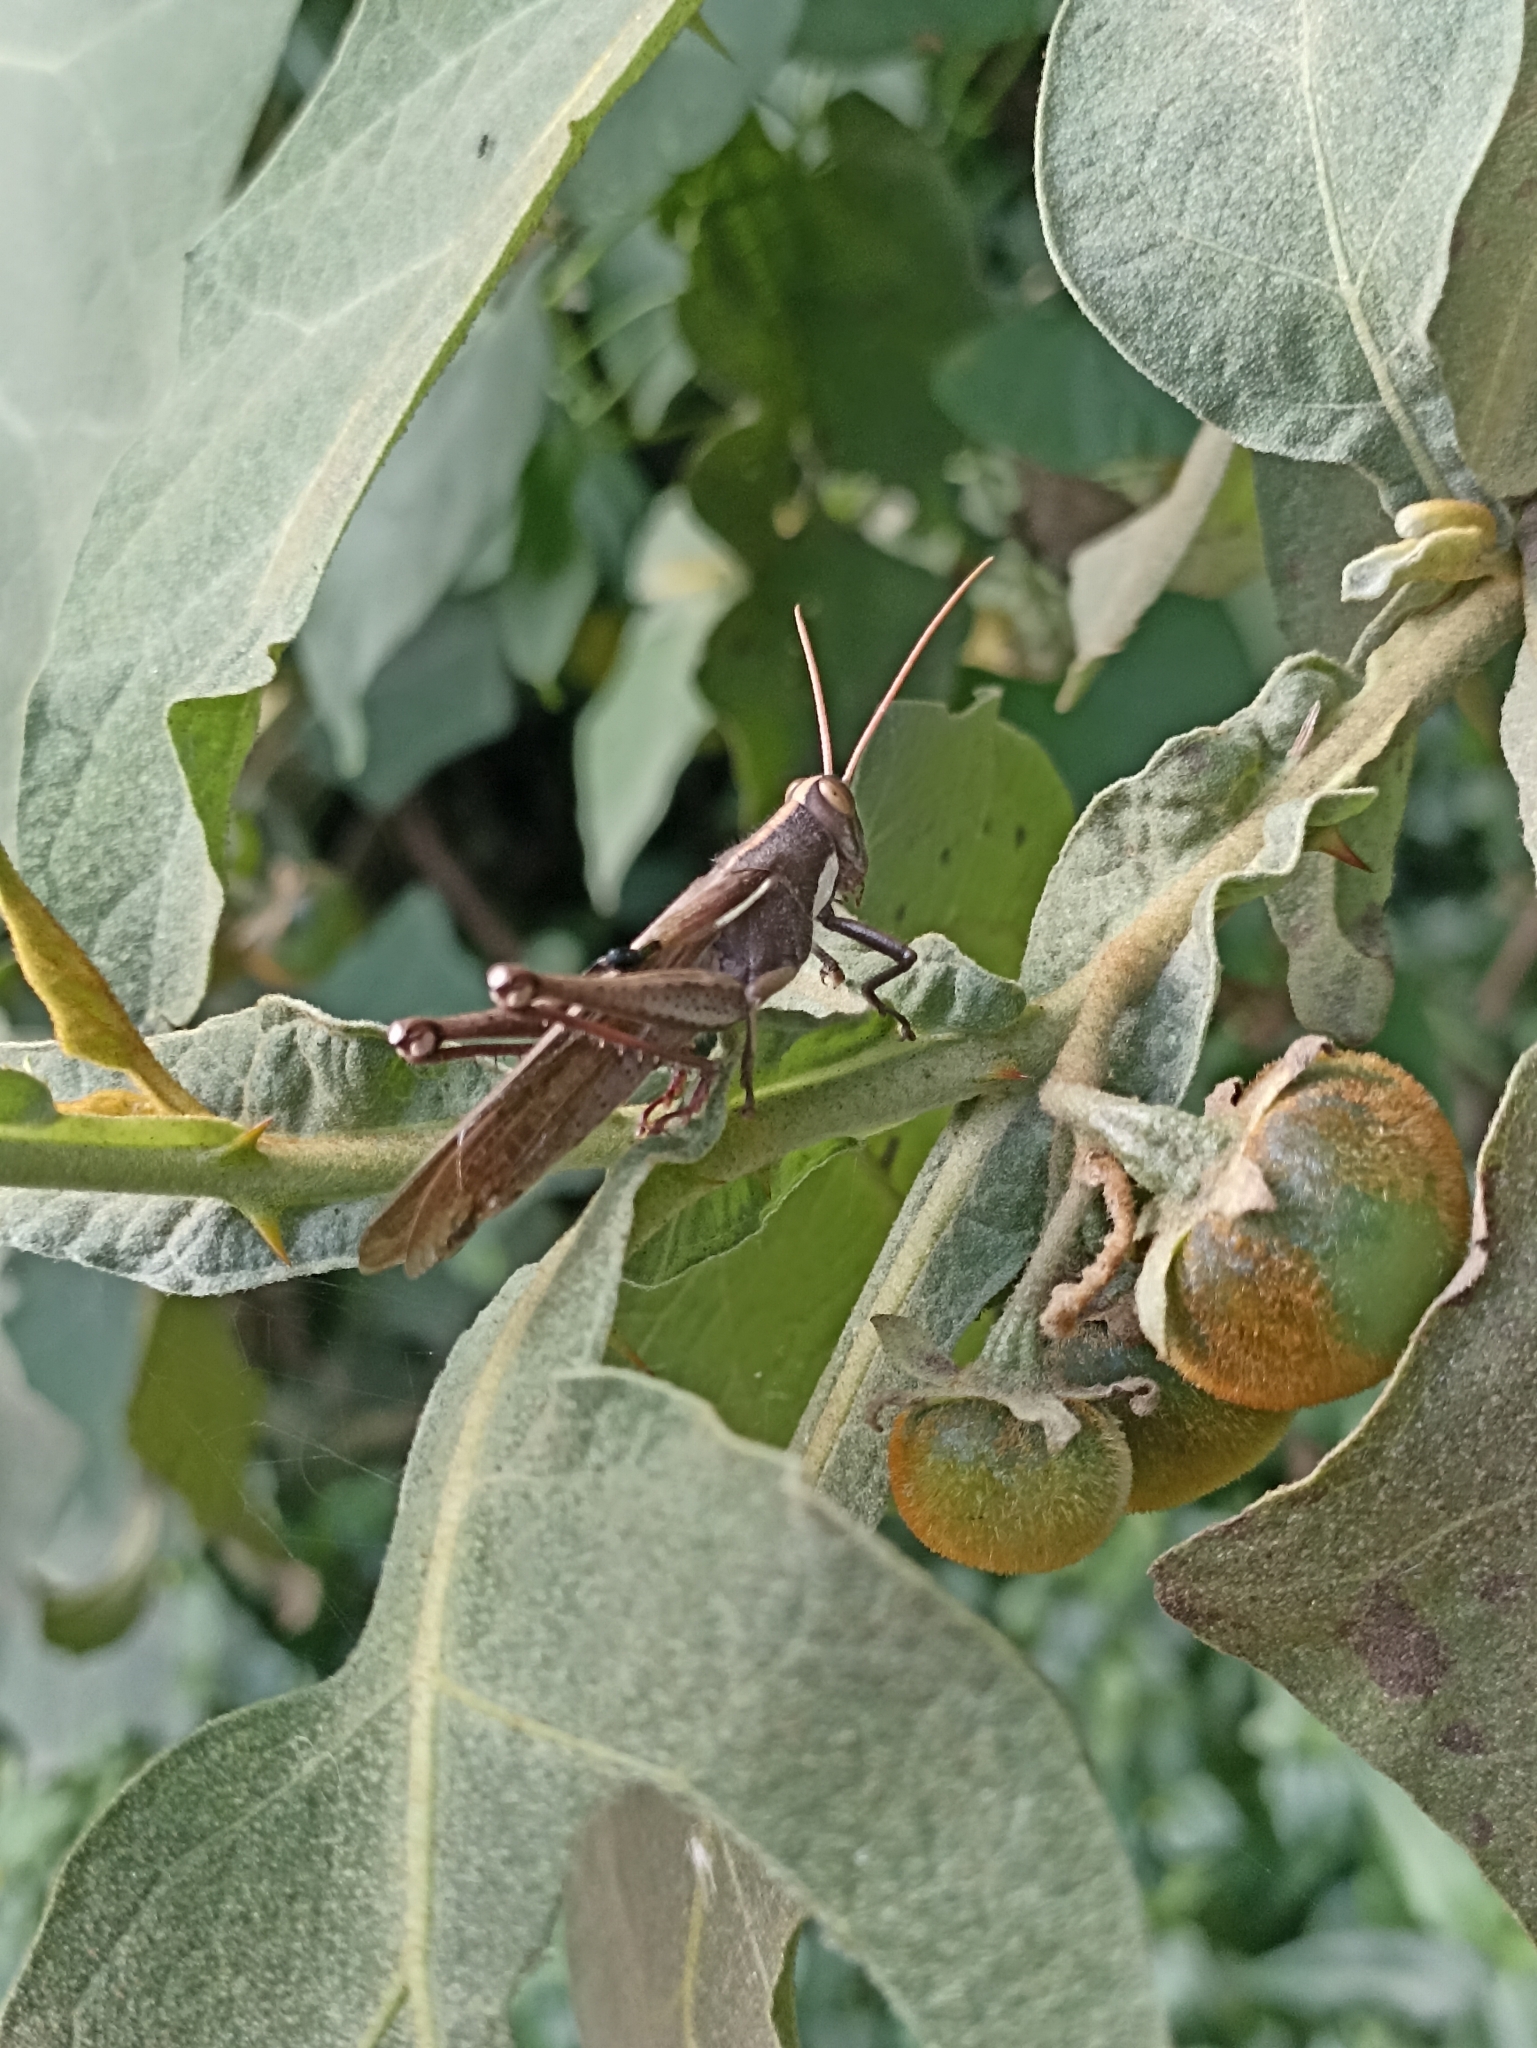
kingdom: Animalia
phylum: Arthropoda
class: Insecta
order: Orthoptera
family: Acrididae
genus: Schistocerca
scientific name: Schistocerca flavofasciata
